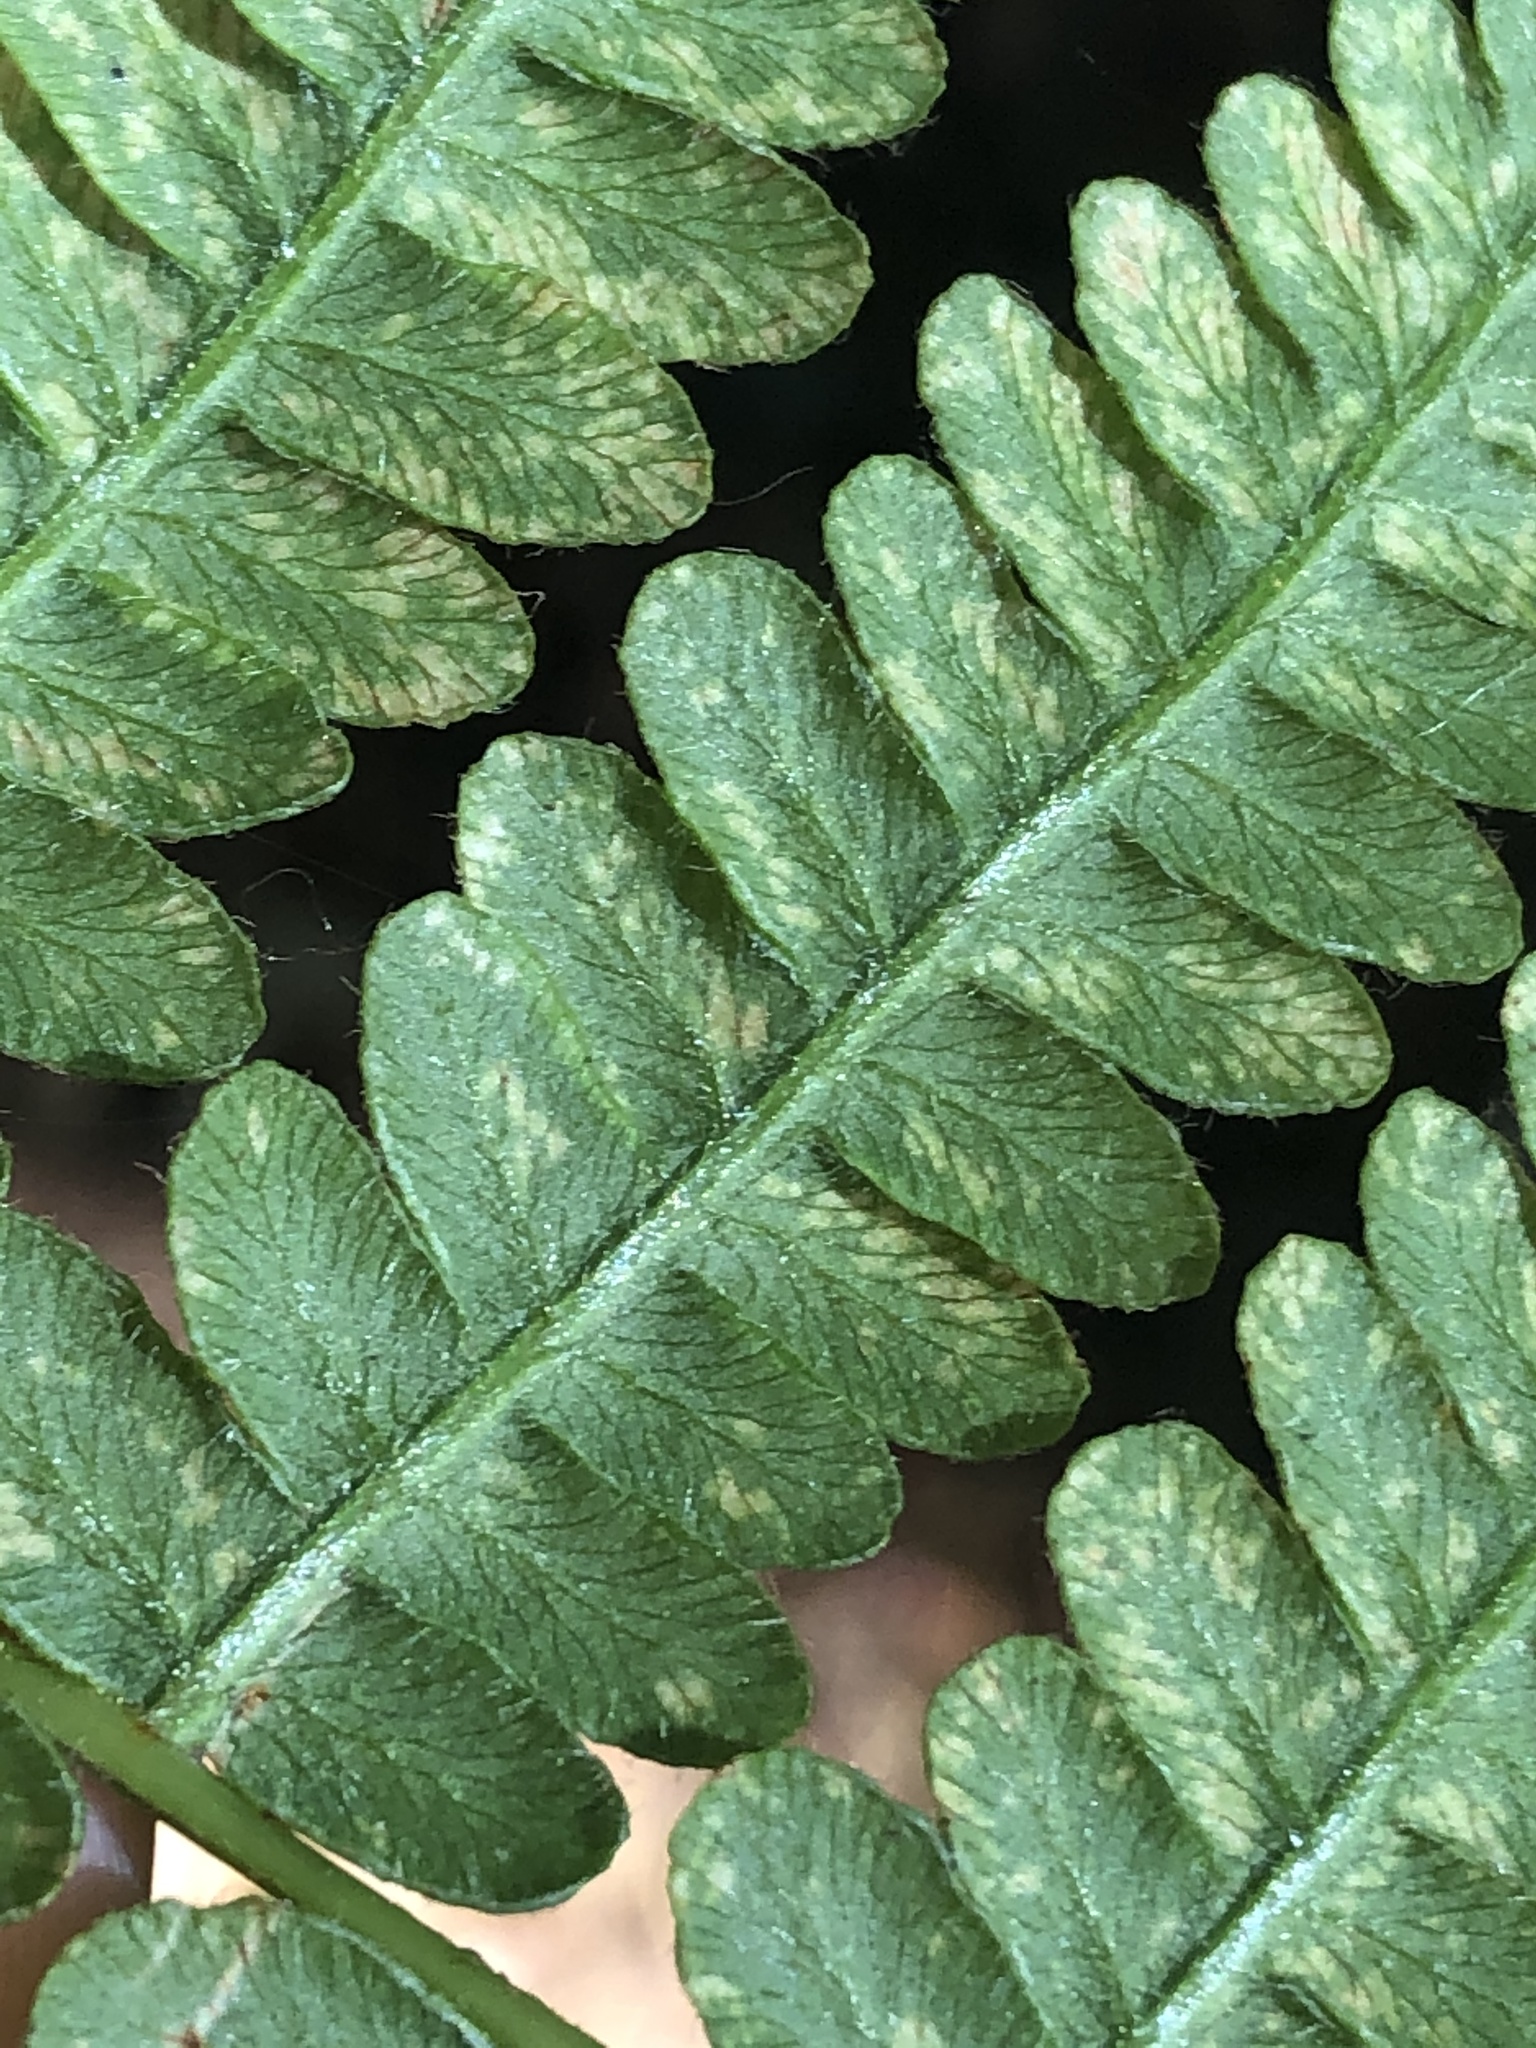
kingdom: Plantae
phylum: Tracheophyta
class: Polypodiopsida
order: Polypodiales
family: Dennstaedtiaceae
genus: Pteridium
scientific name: Pteridium aquilinum
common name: Bracken
